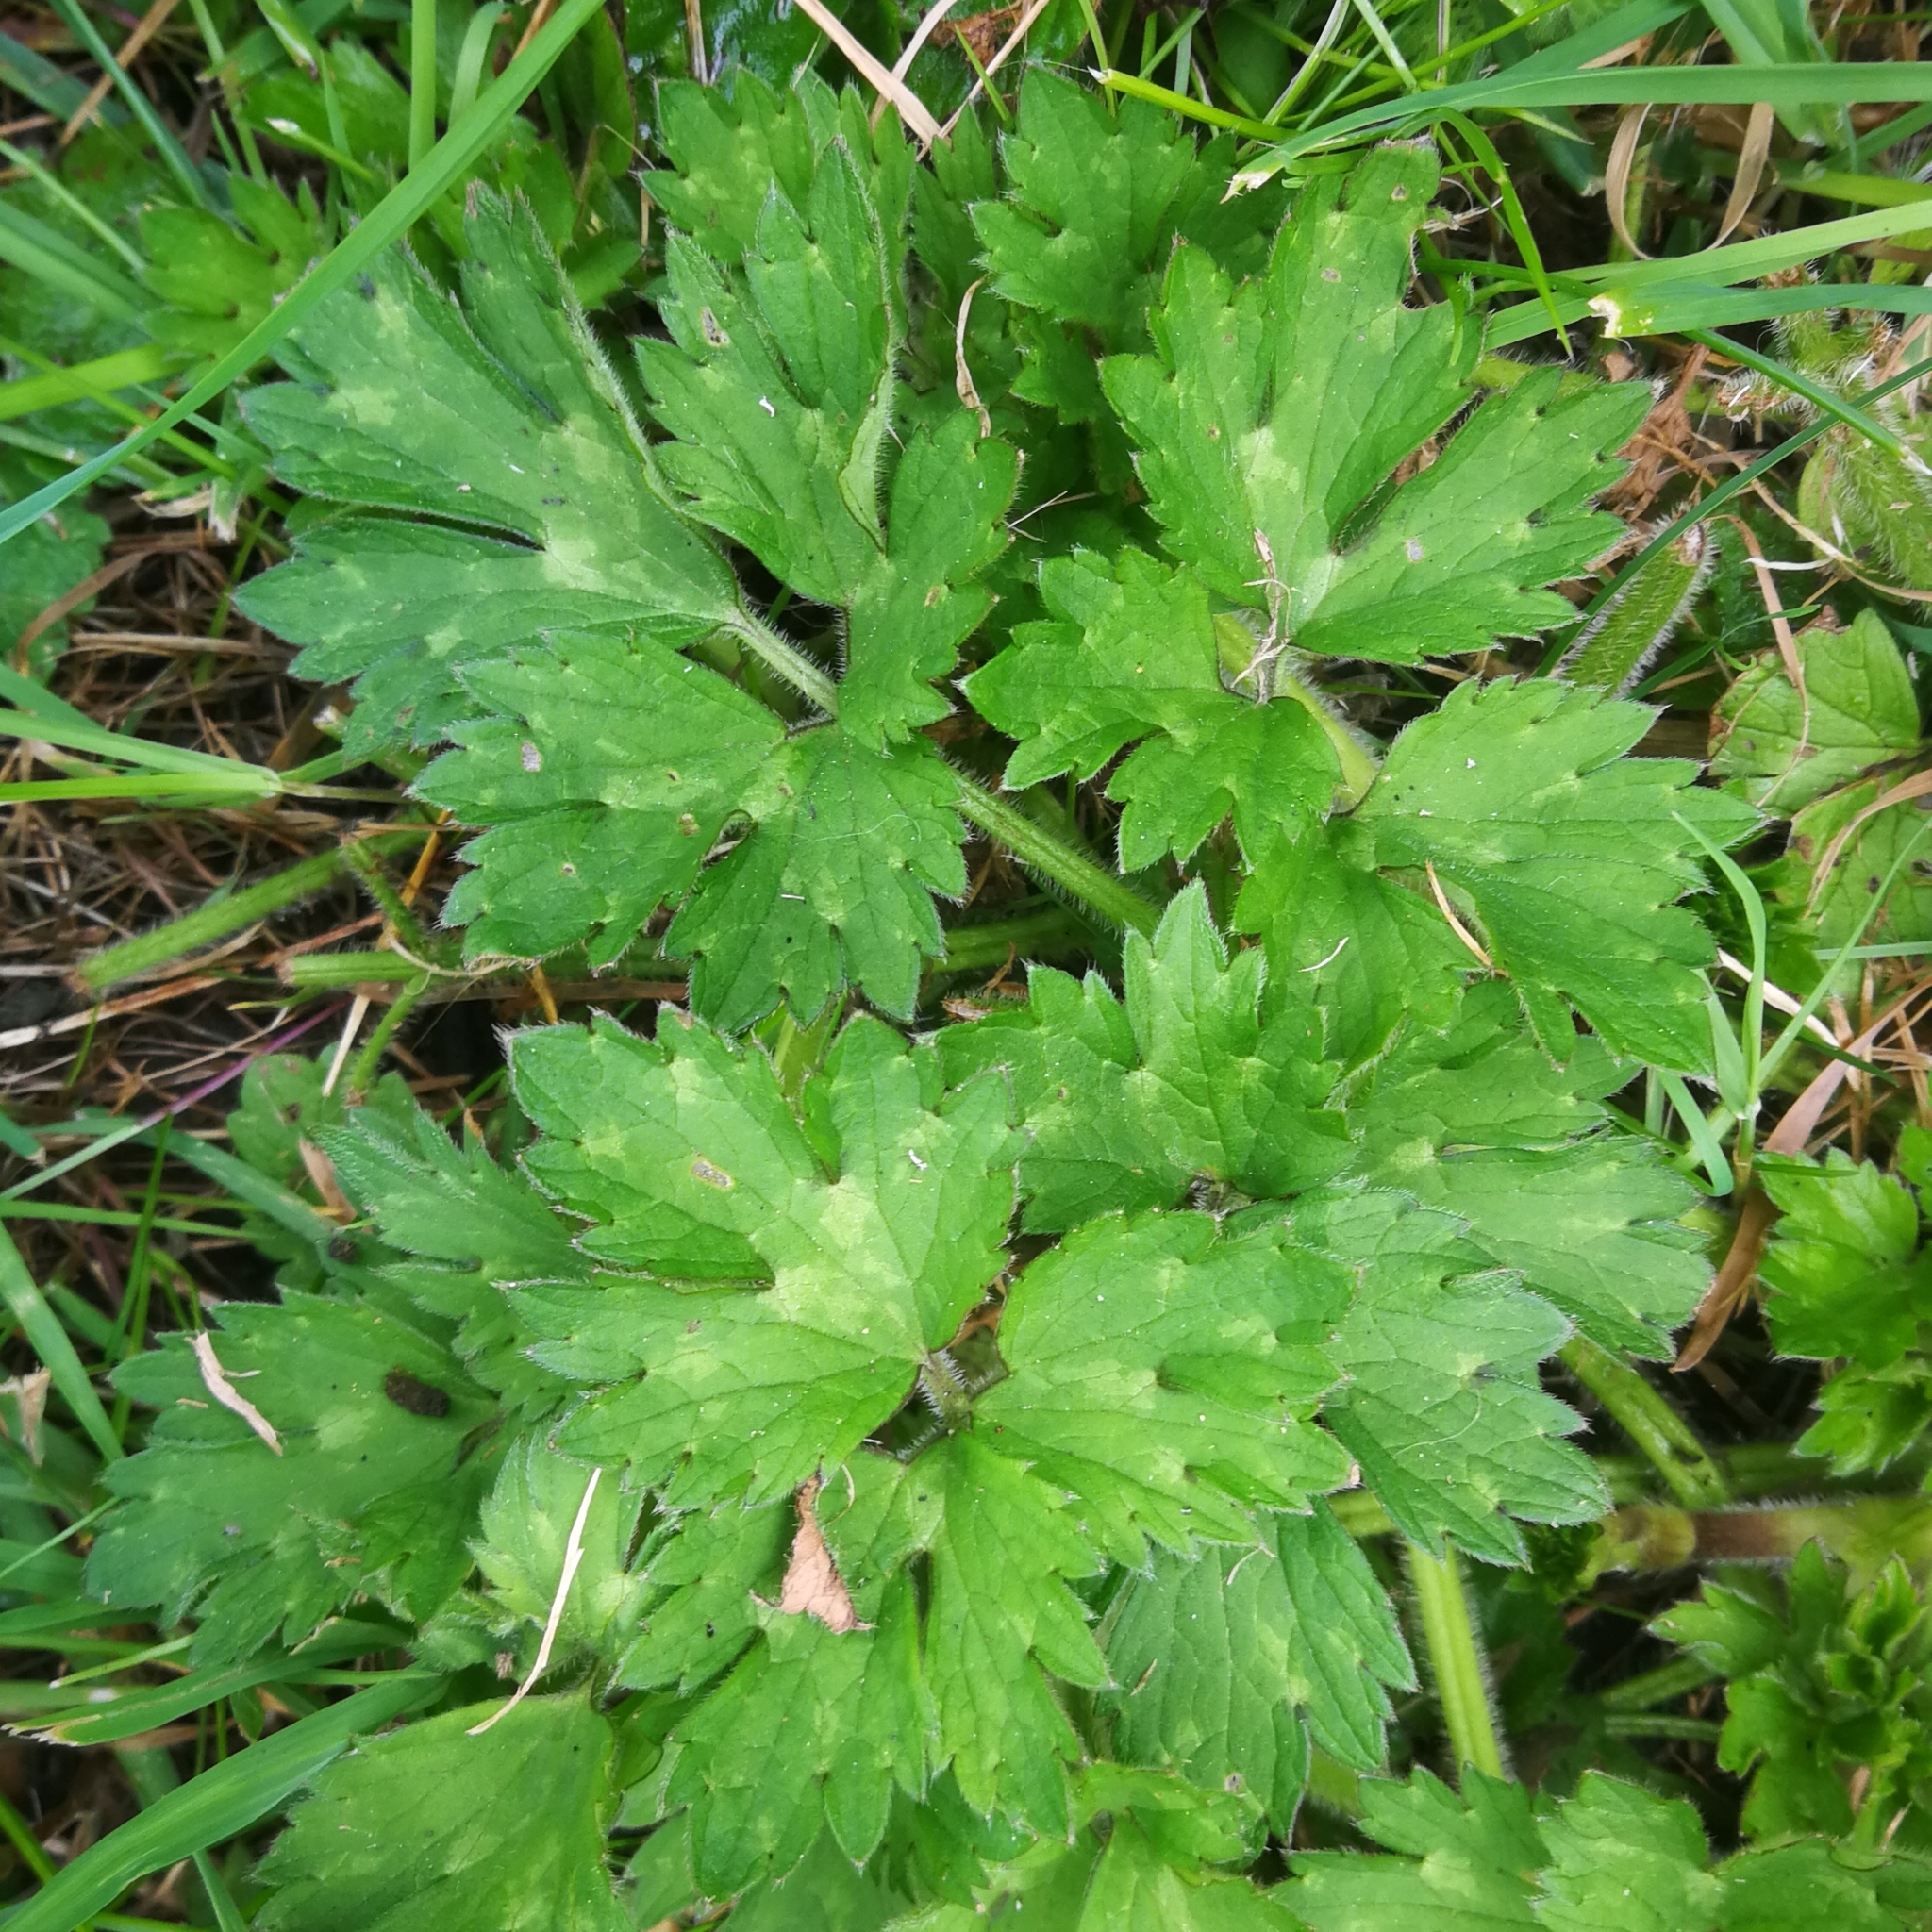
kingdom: Plantae
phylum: Tracheophyta
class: Magnoliopsida
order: Ranunculales
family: Ranunculaceae
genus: Ranunculus
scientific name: Ranunculus repens
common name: Creeping buttercup
